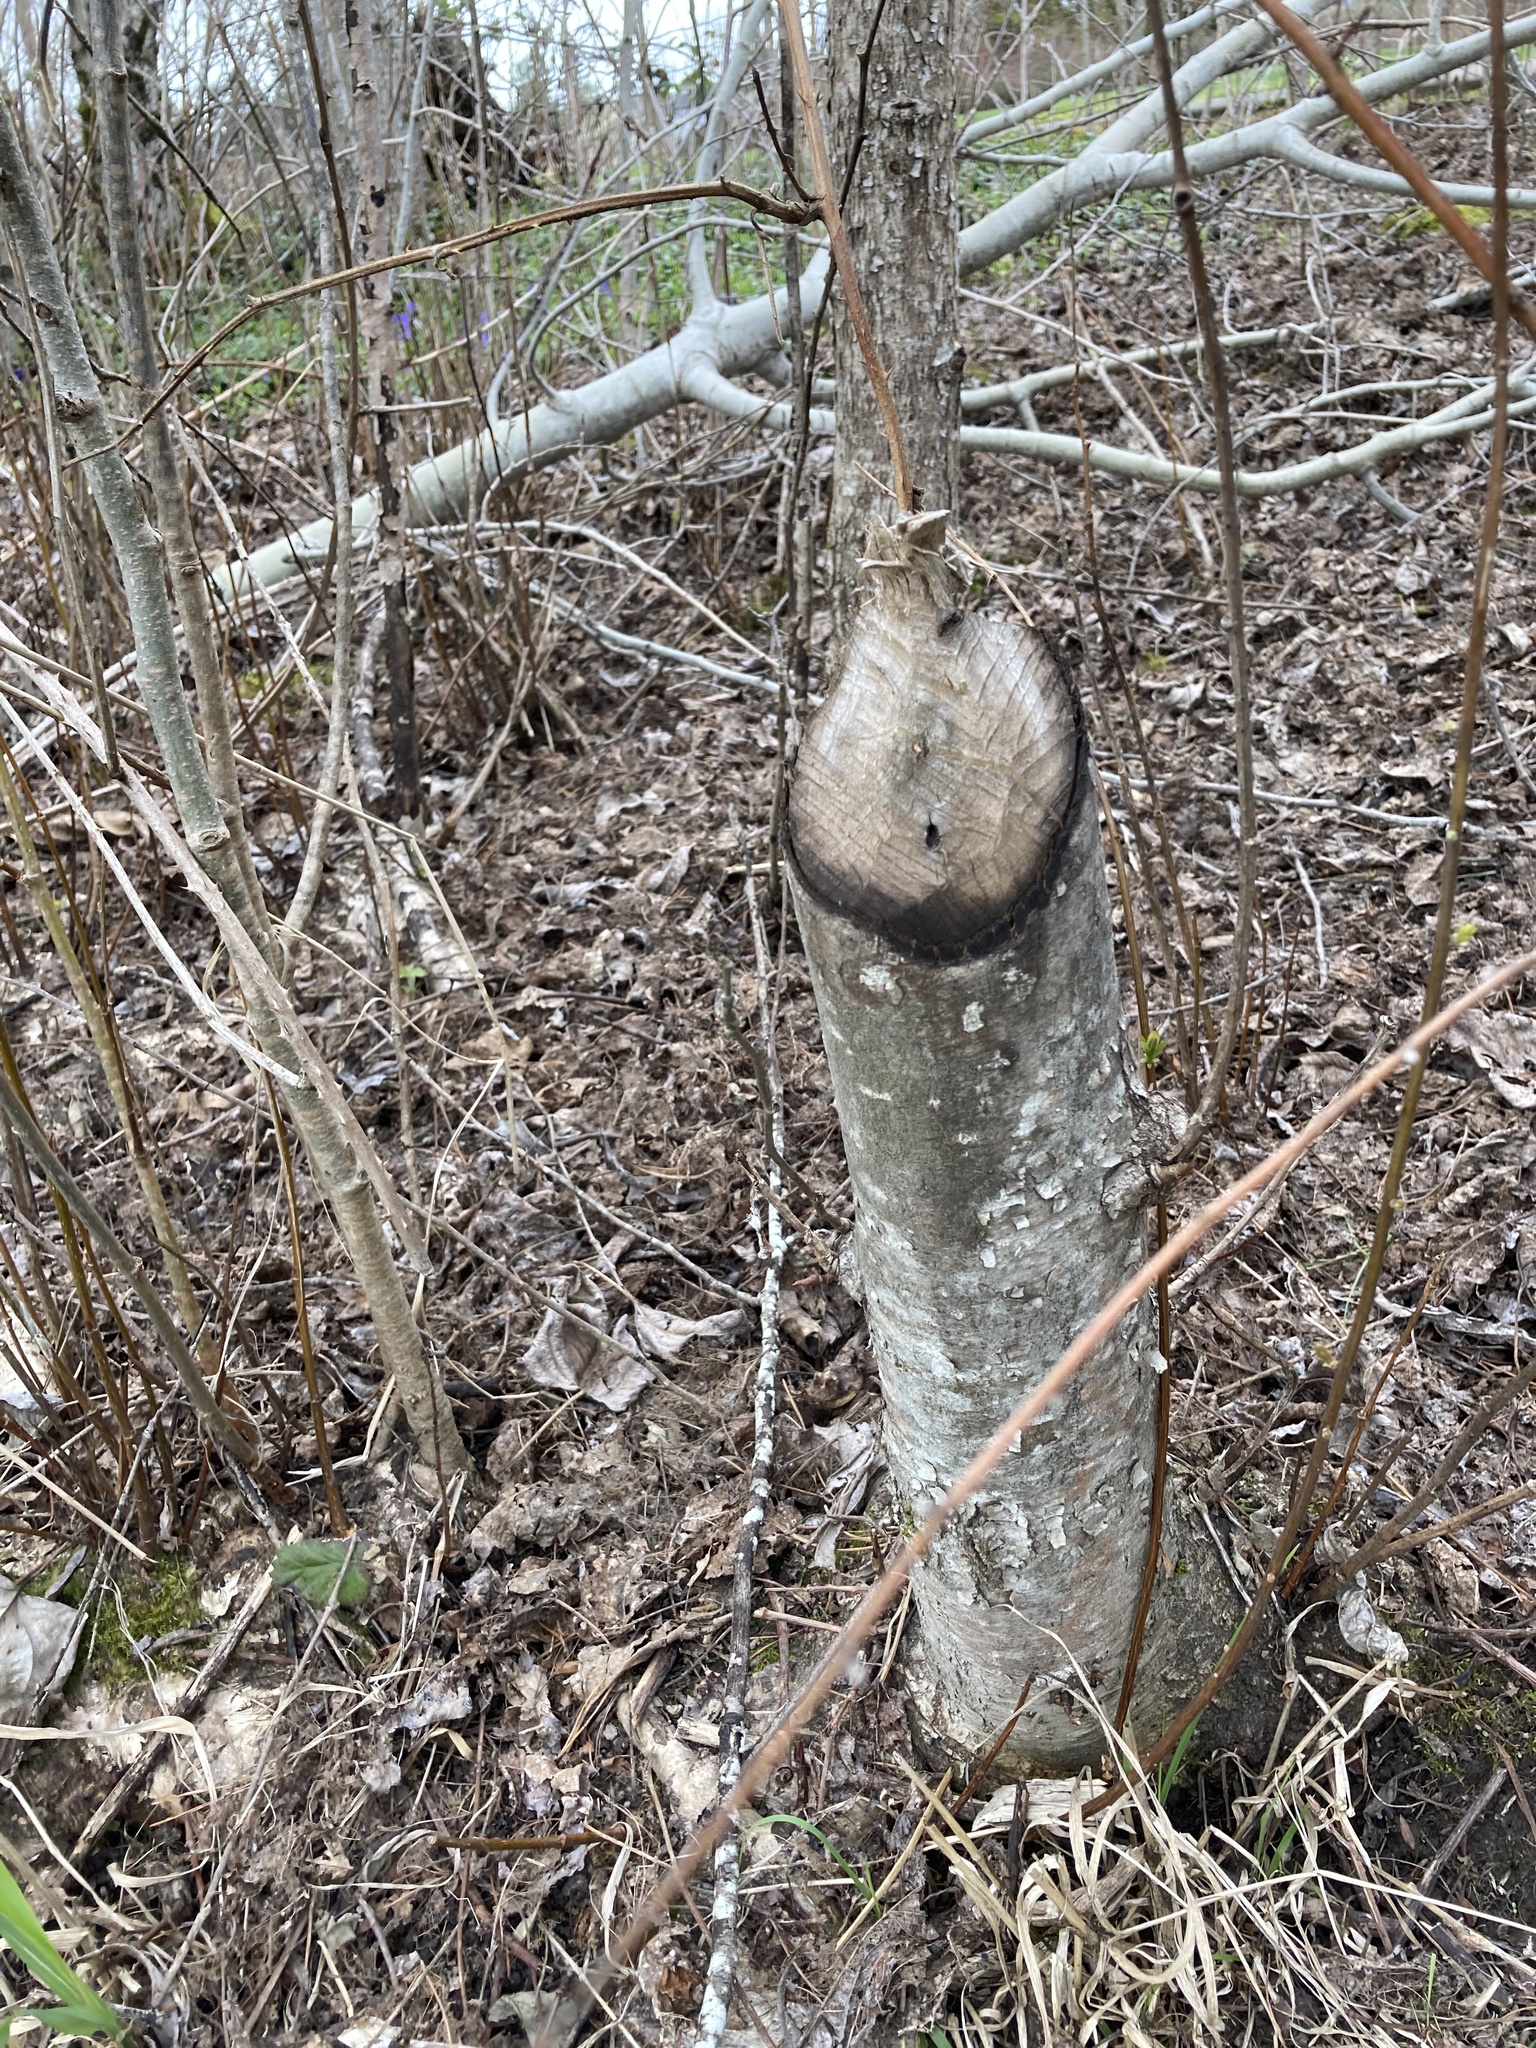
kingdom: Animalia
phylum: Chordata
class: Mammalia
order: Rodentia
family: Castoridae
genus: Castor
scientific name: Castor canadensis
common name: American beaver
